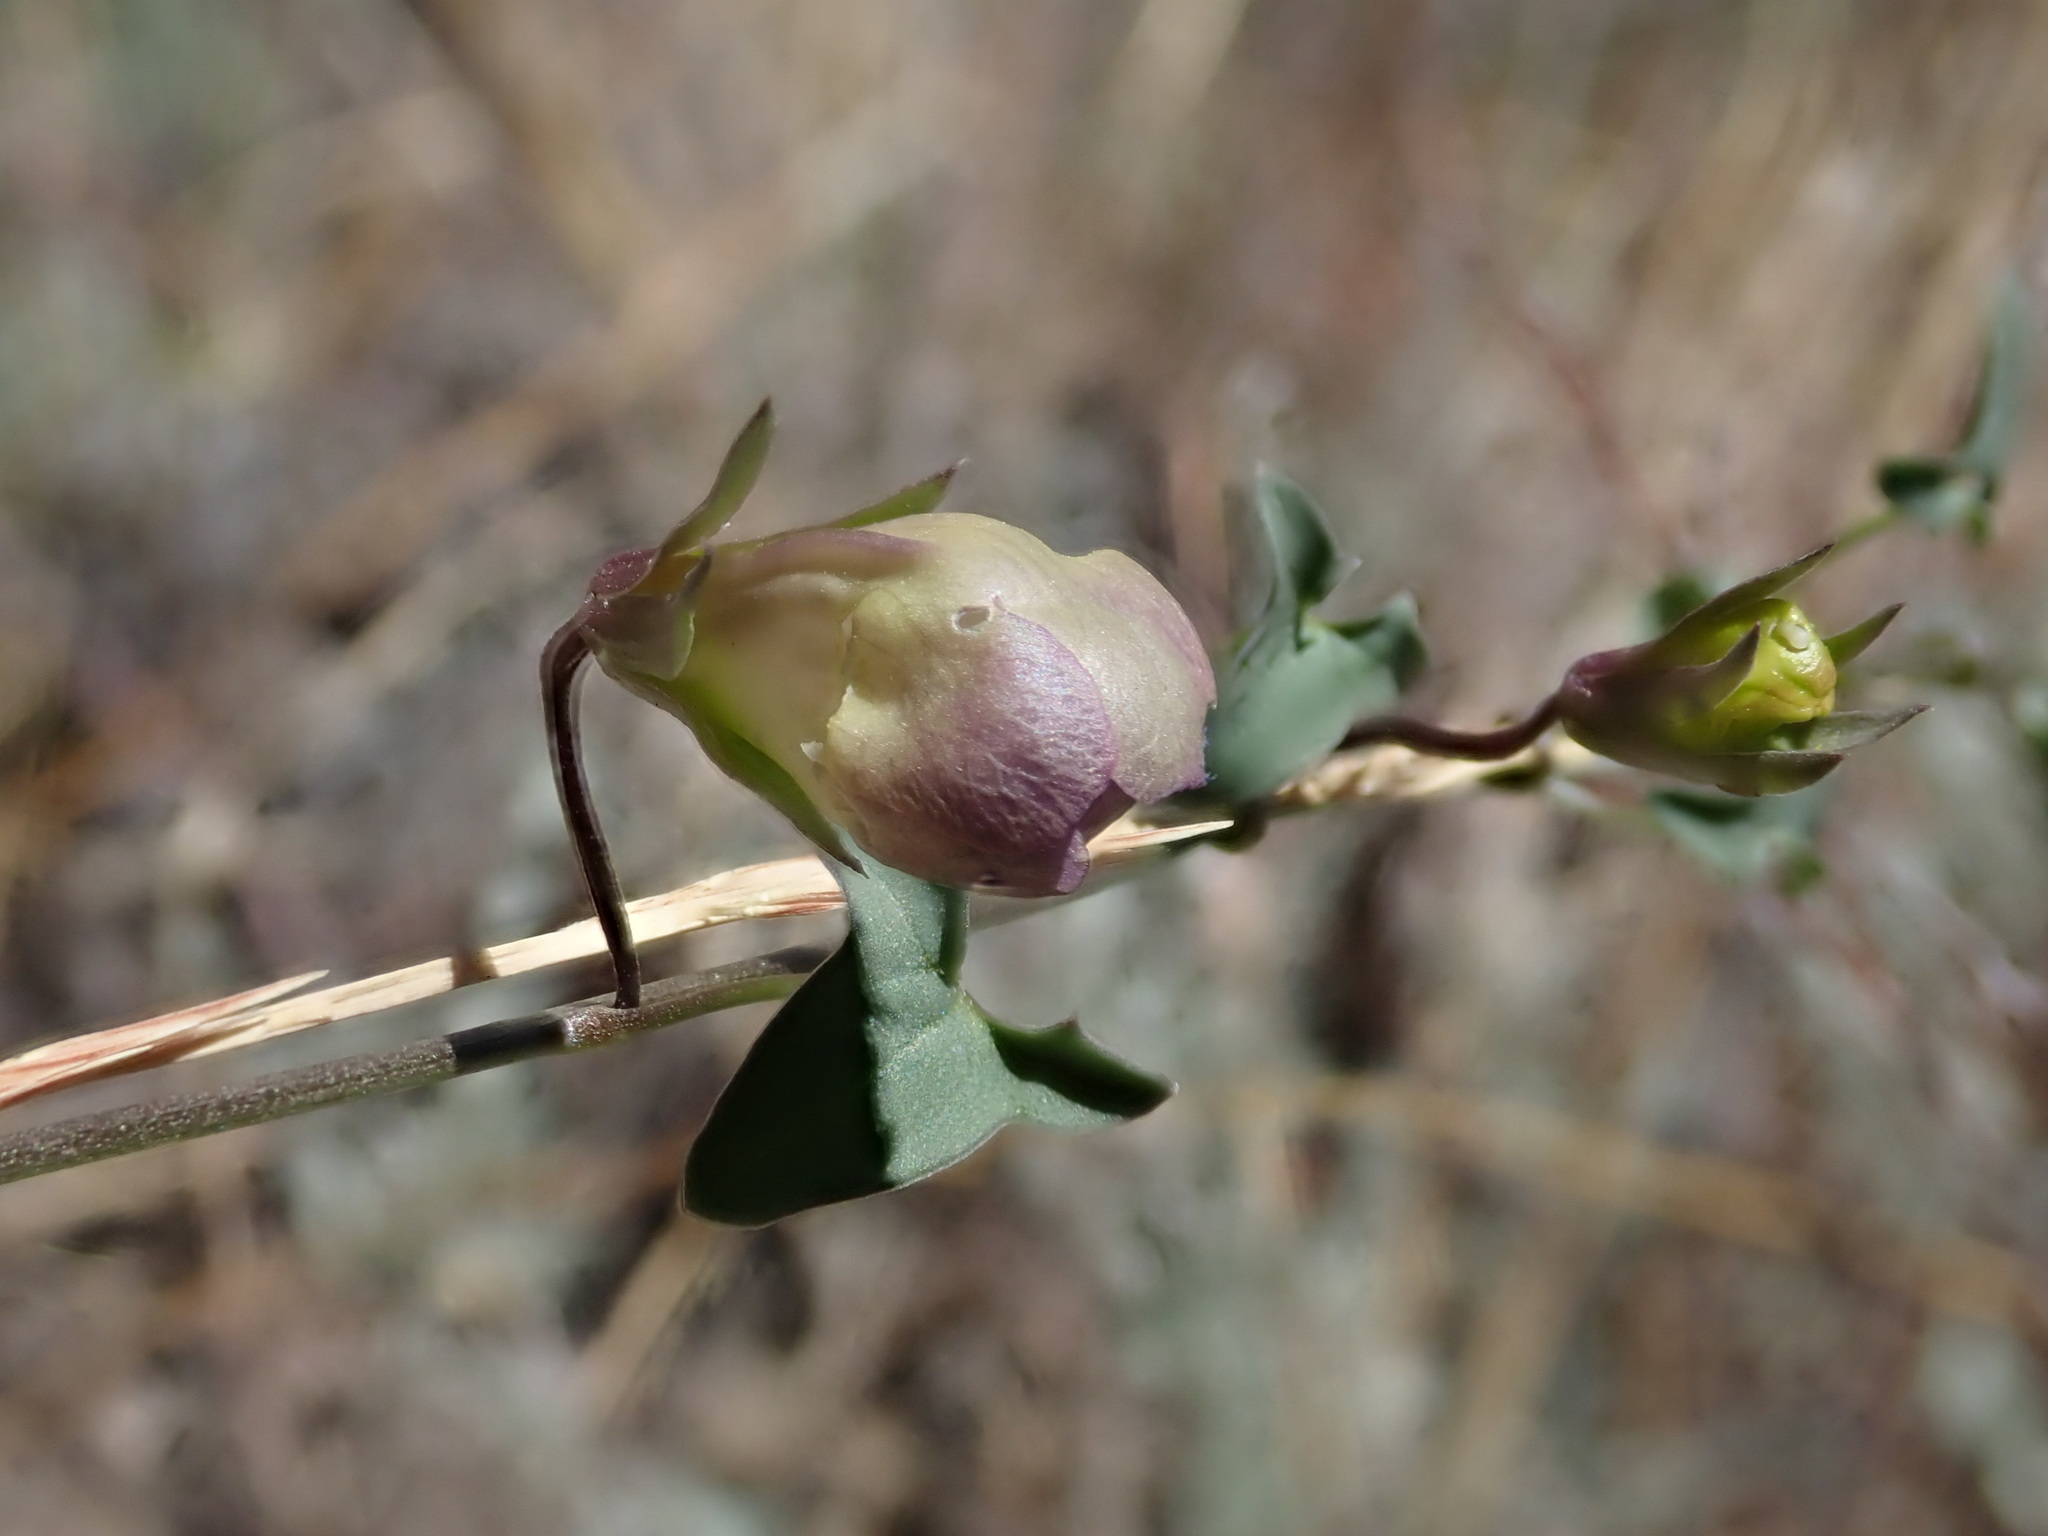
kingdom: Plantae
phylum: Tracheophyta
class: Magnoliopsida
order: Lamiales
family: Plantaginaceae
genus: Maurandella
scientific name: Maurandella antirrhiniflora
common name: Violet twining-snapdragon
